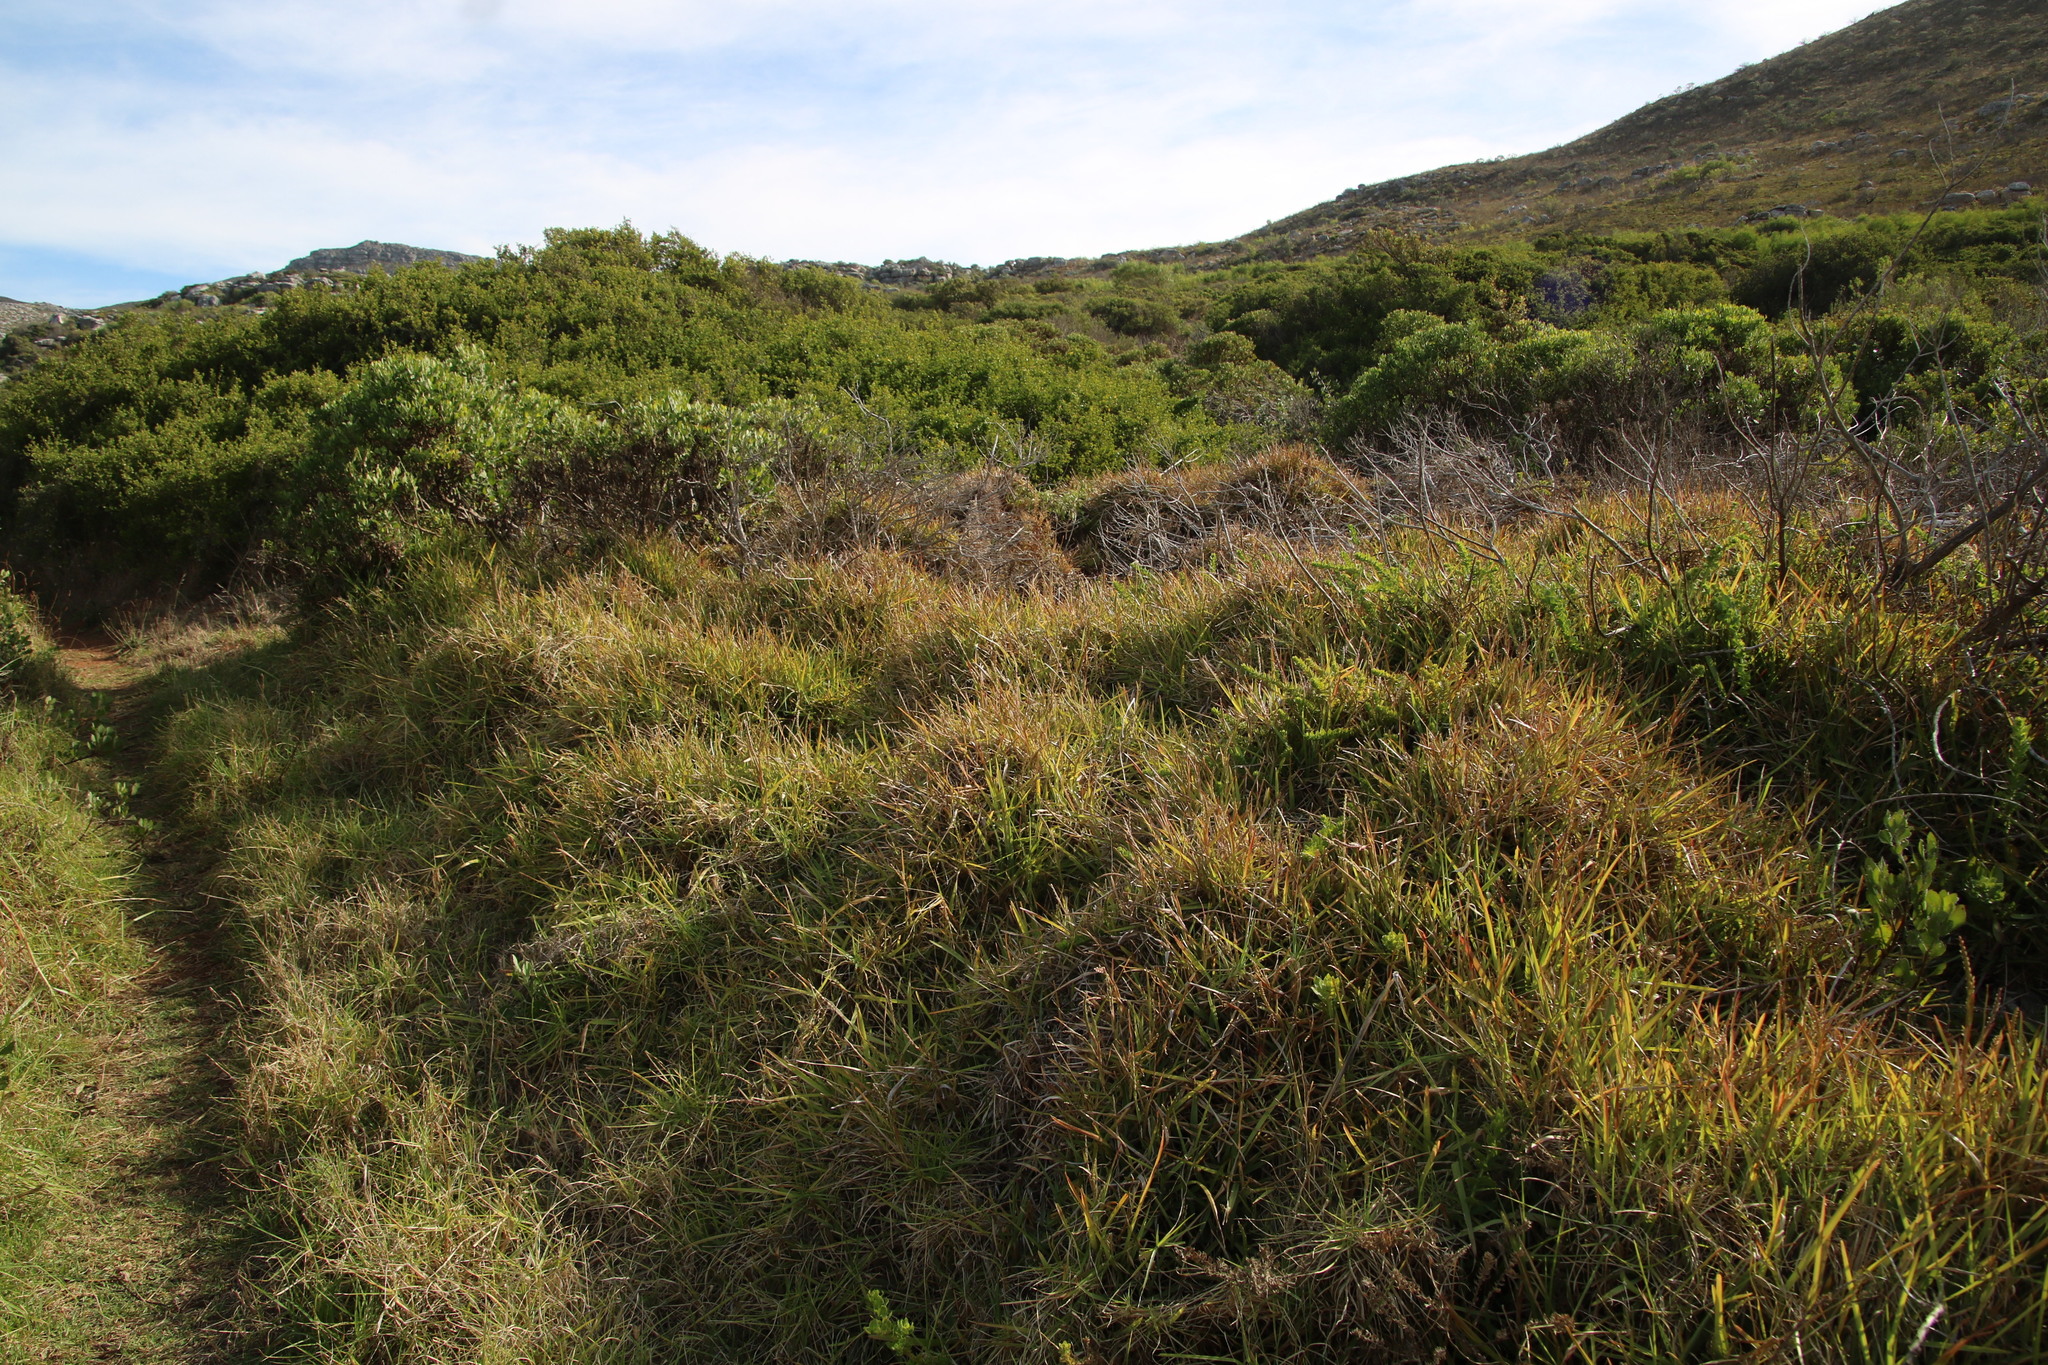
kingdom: Plantae
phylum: Tracheophyta
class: Liliopsida
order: Poales
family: Poaceae
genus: Stenotaphrum
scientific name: Stenotaphrum secundatum
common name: St. augustine grass
